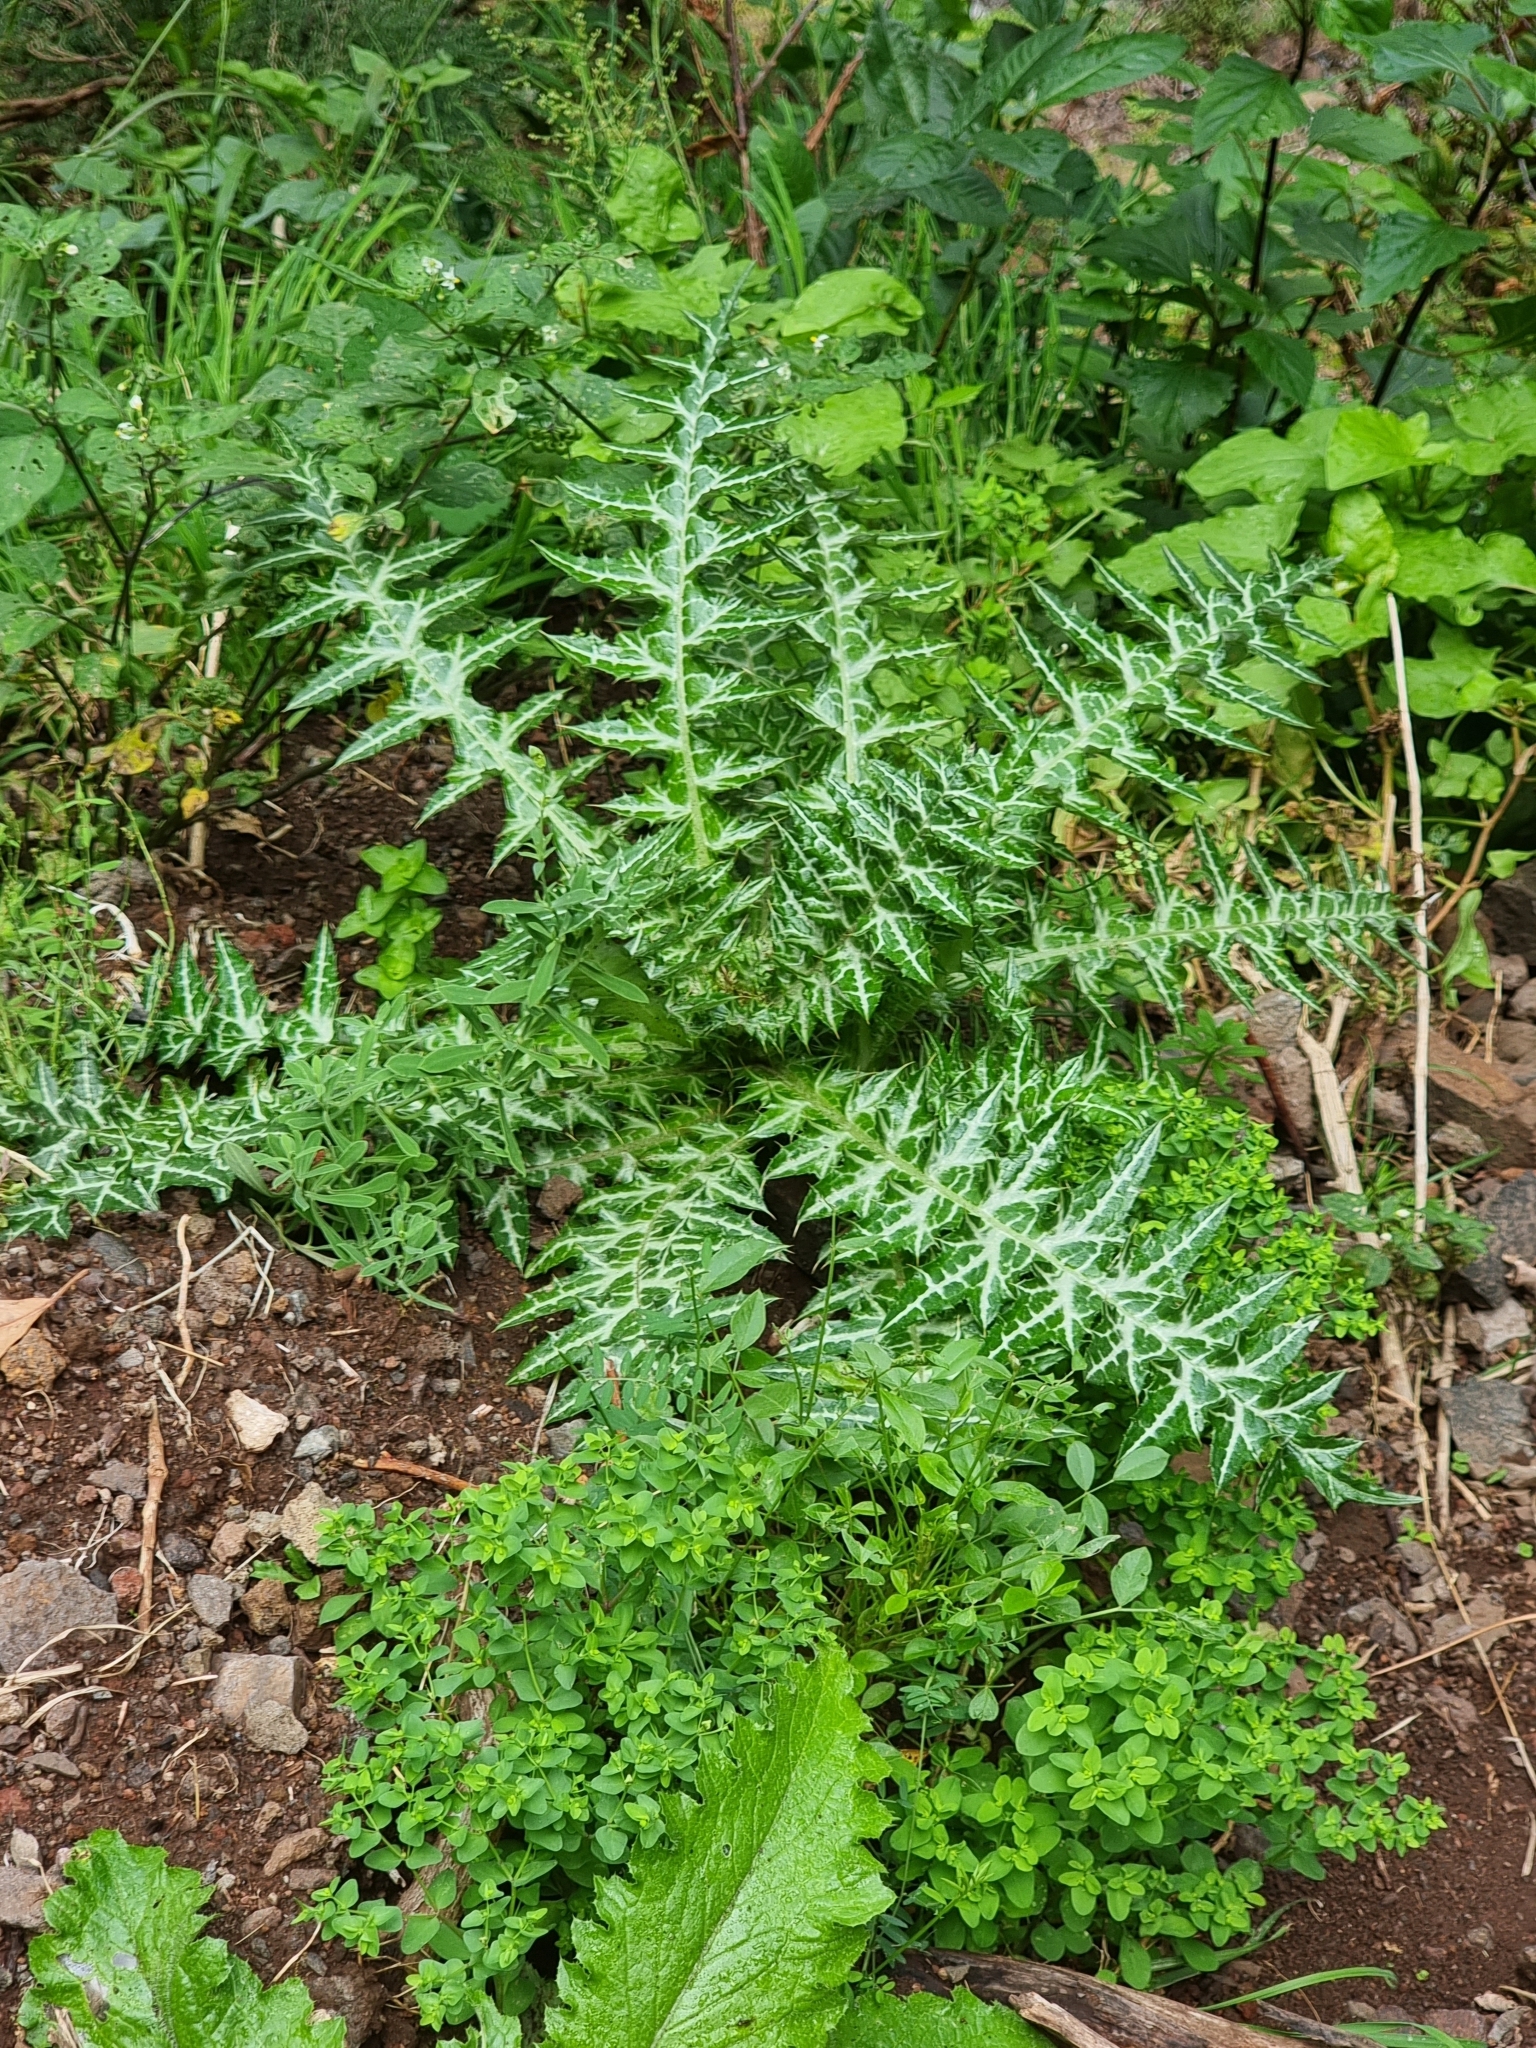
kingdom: Plantae
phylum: Tracheophyta
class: Magnoliopsida
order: Asterales
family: Asteraceae
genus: Galactites
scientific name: Galactites tomentosa
